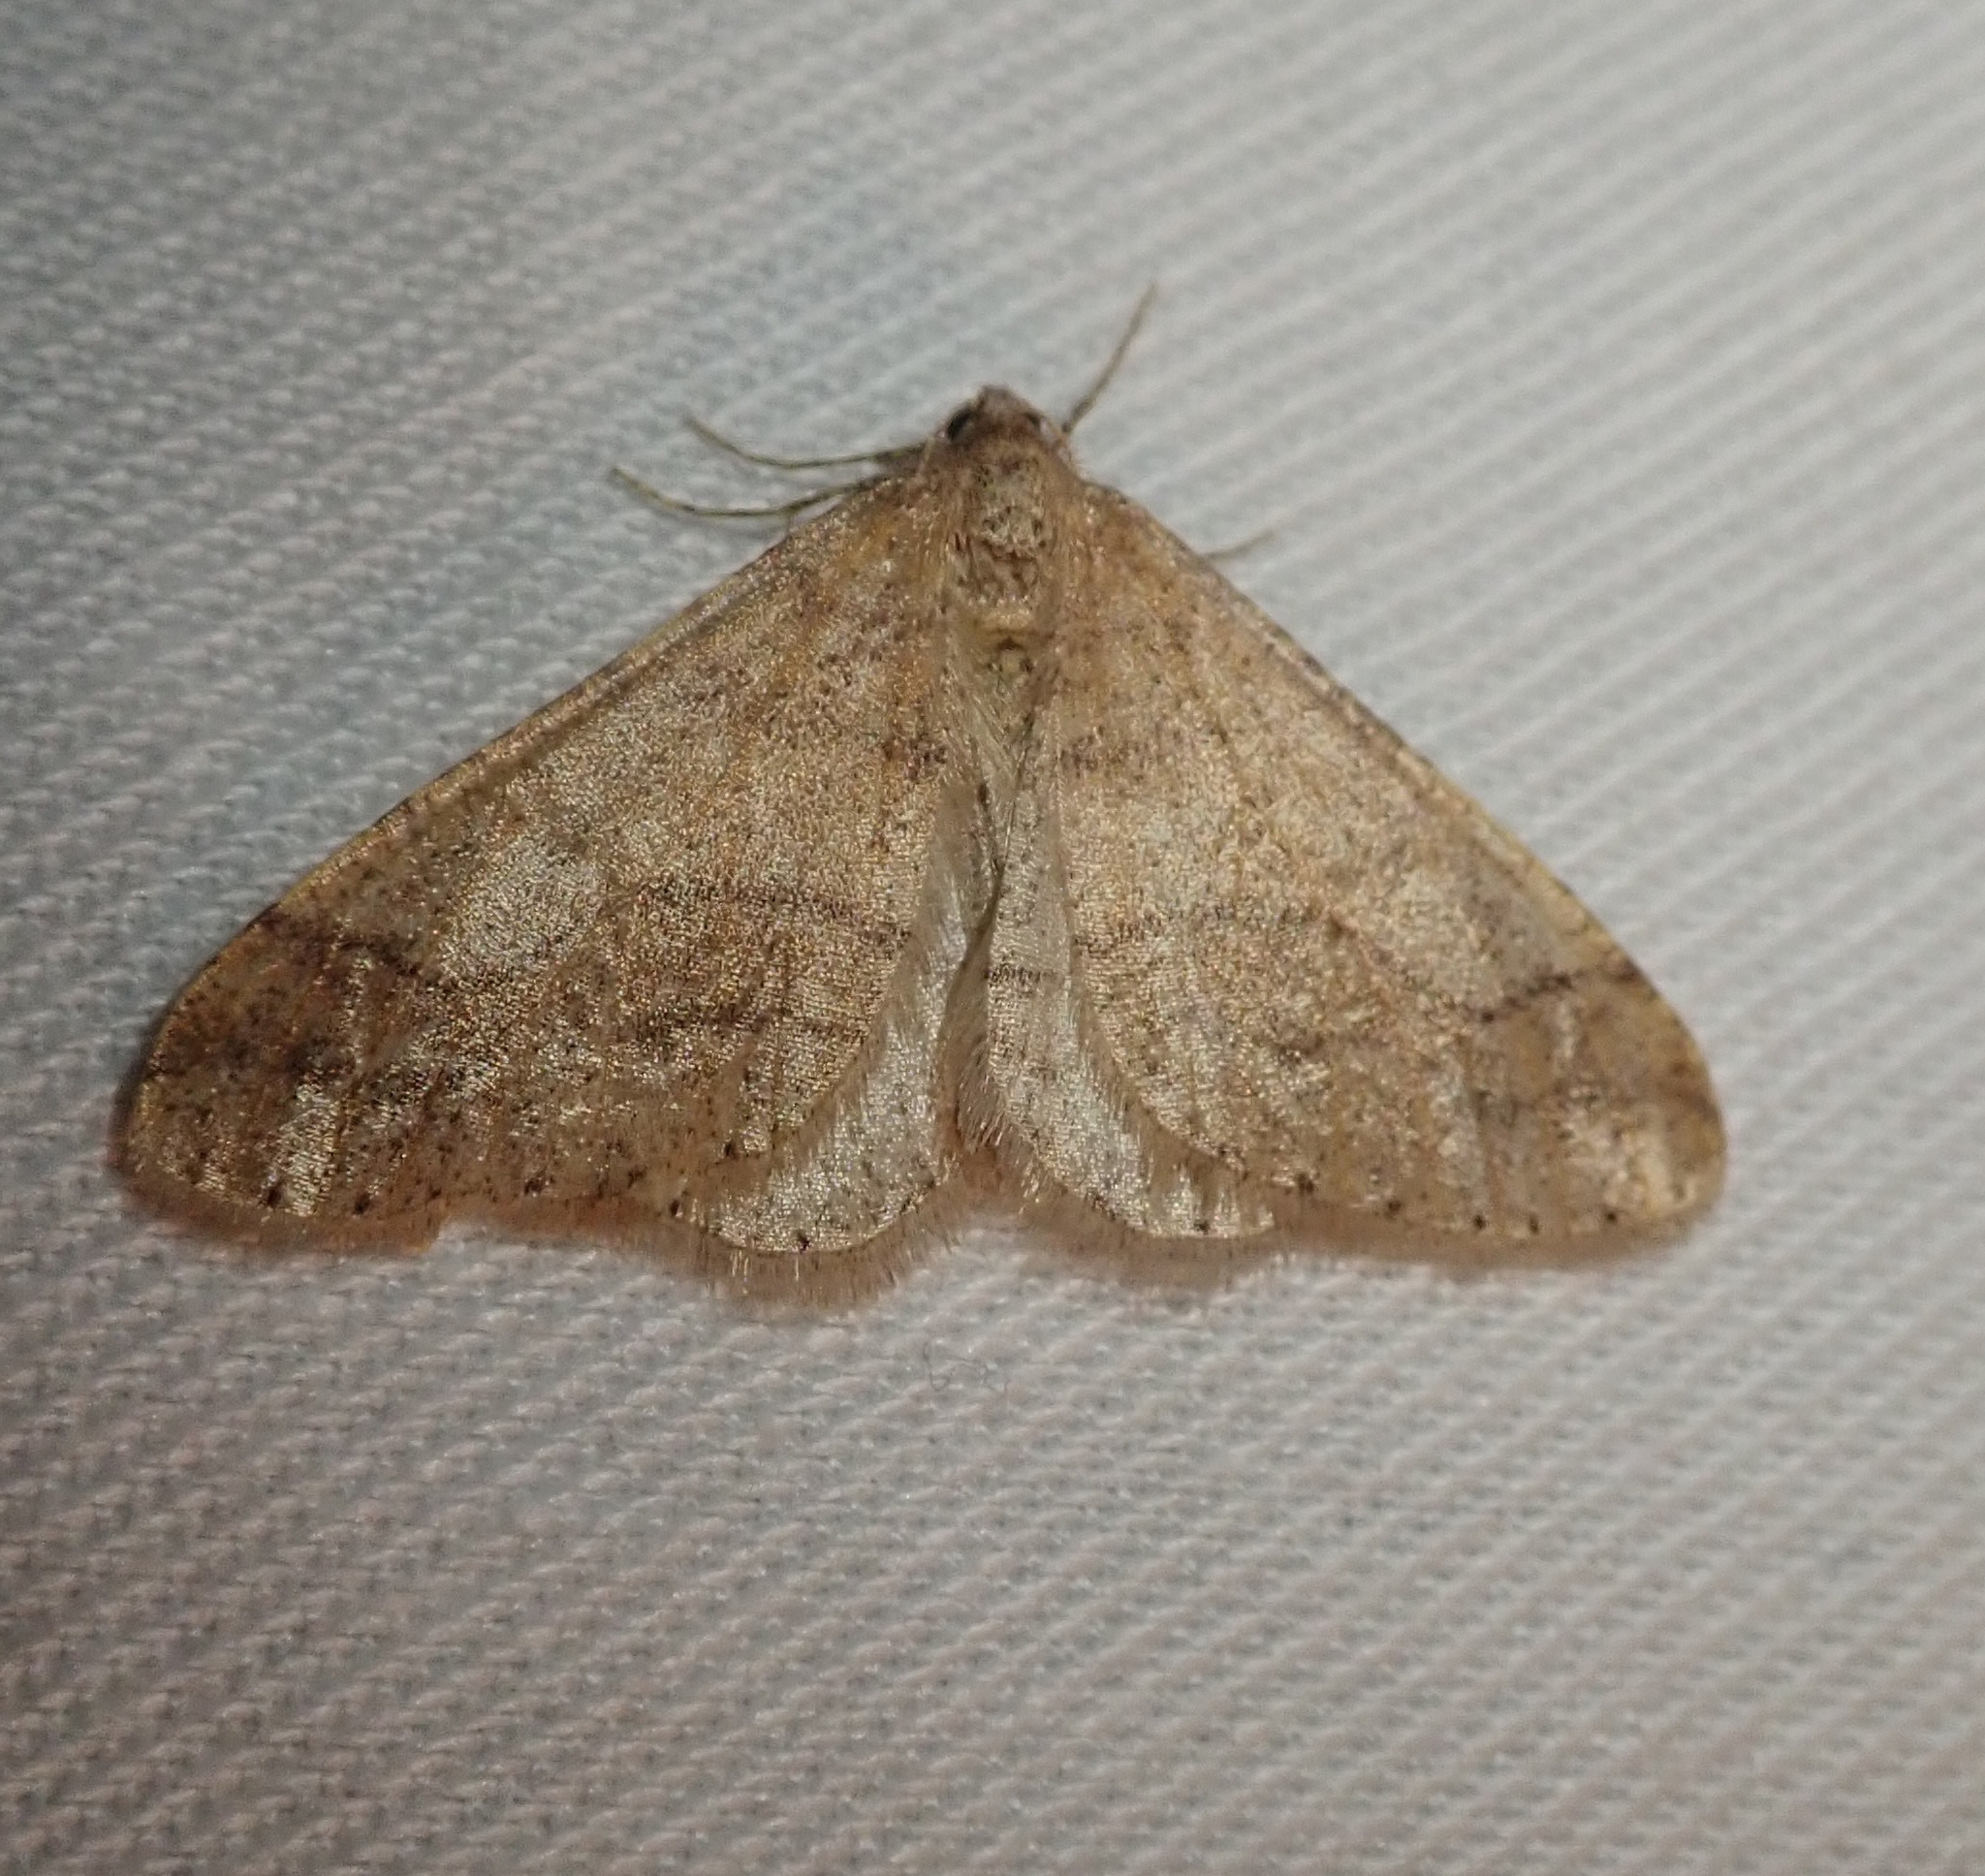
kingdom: Animalia
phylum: Arthropoda
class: Insecta
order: Lepidoptera
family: Geometridae
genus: Agriopis
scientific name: Agriopis marginaria
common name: Dotted border
